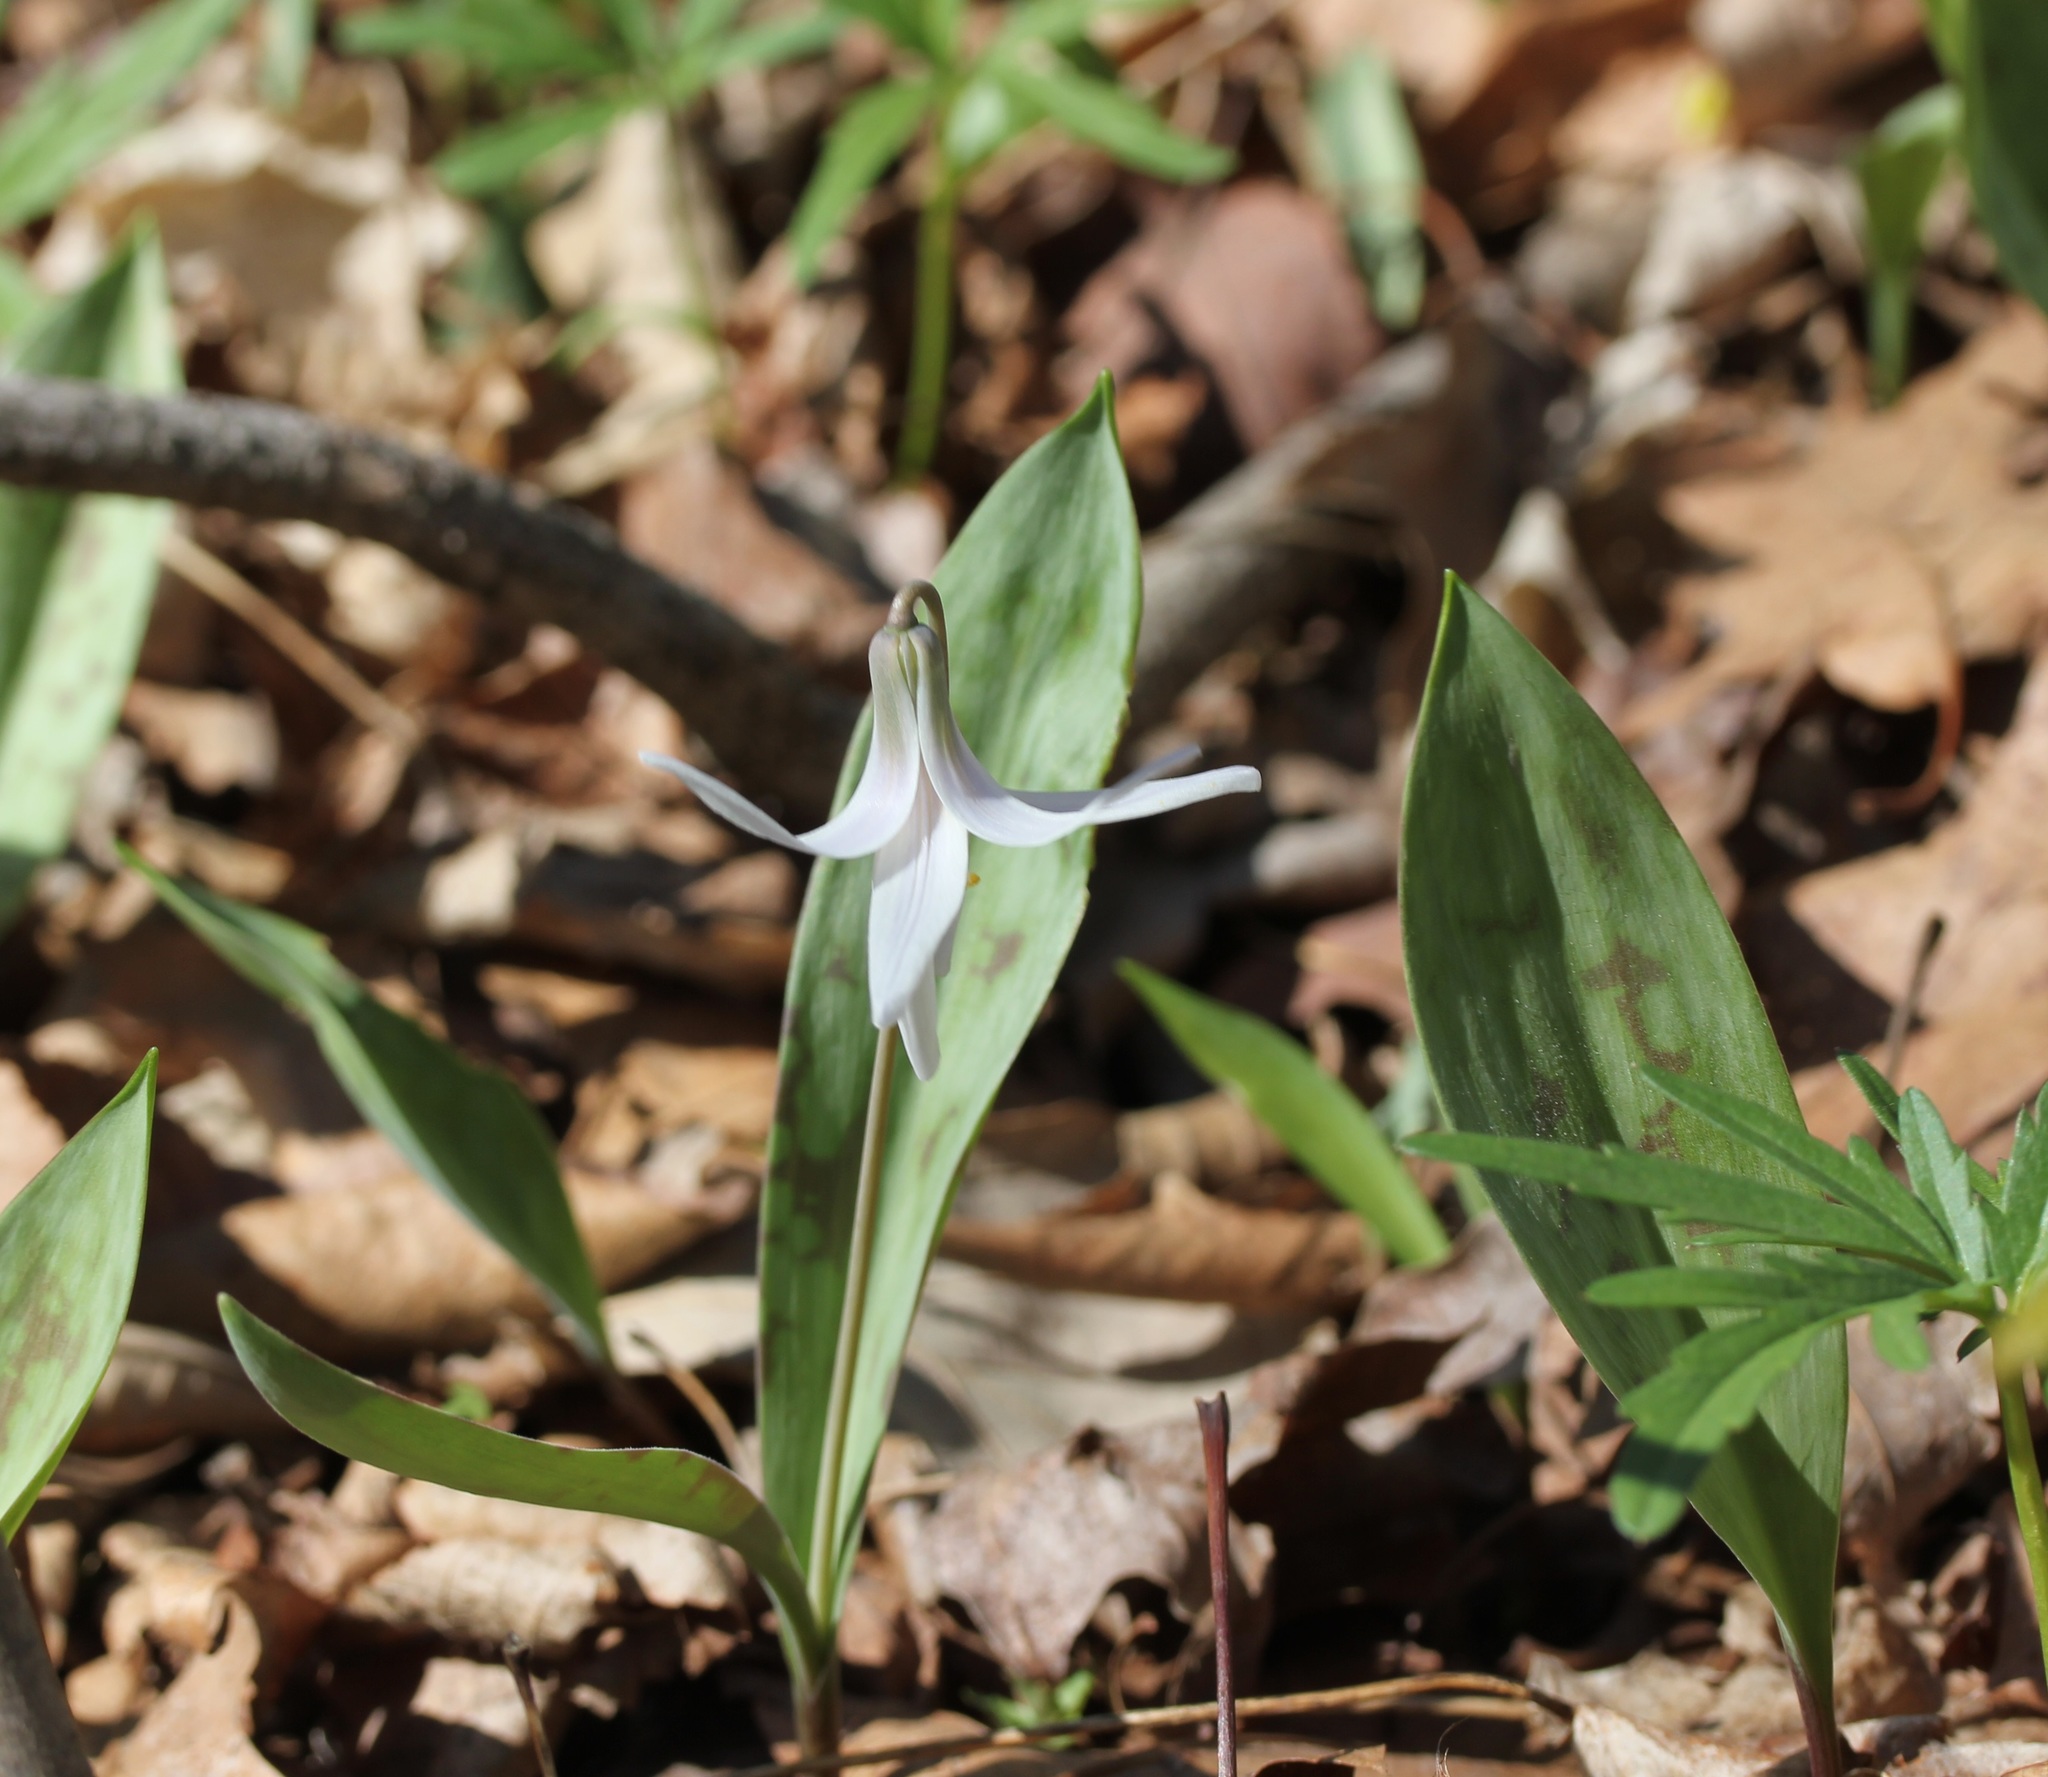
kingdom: Plantae
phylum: Tracheophyta
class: Liliopsida
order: Liliales
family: Liliaceae
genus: Erythronium
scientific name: Erythronium albidum
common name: White trout-lily
